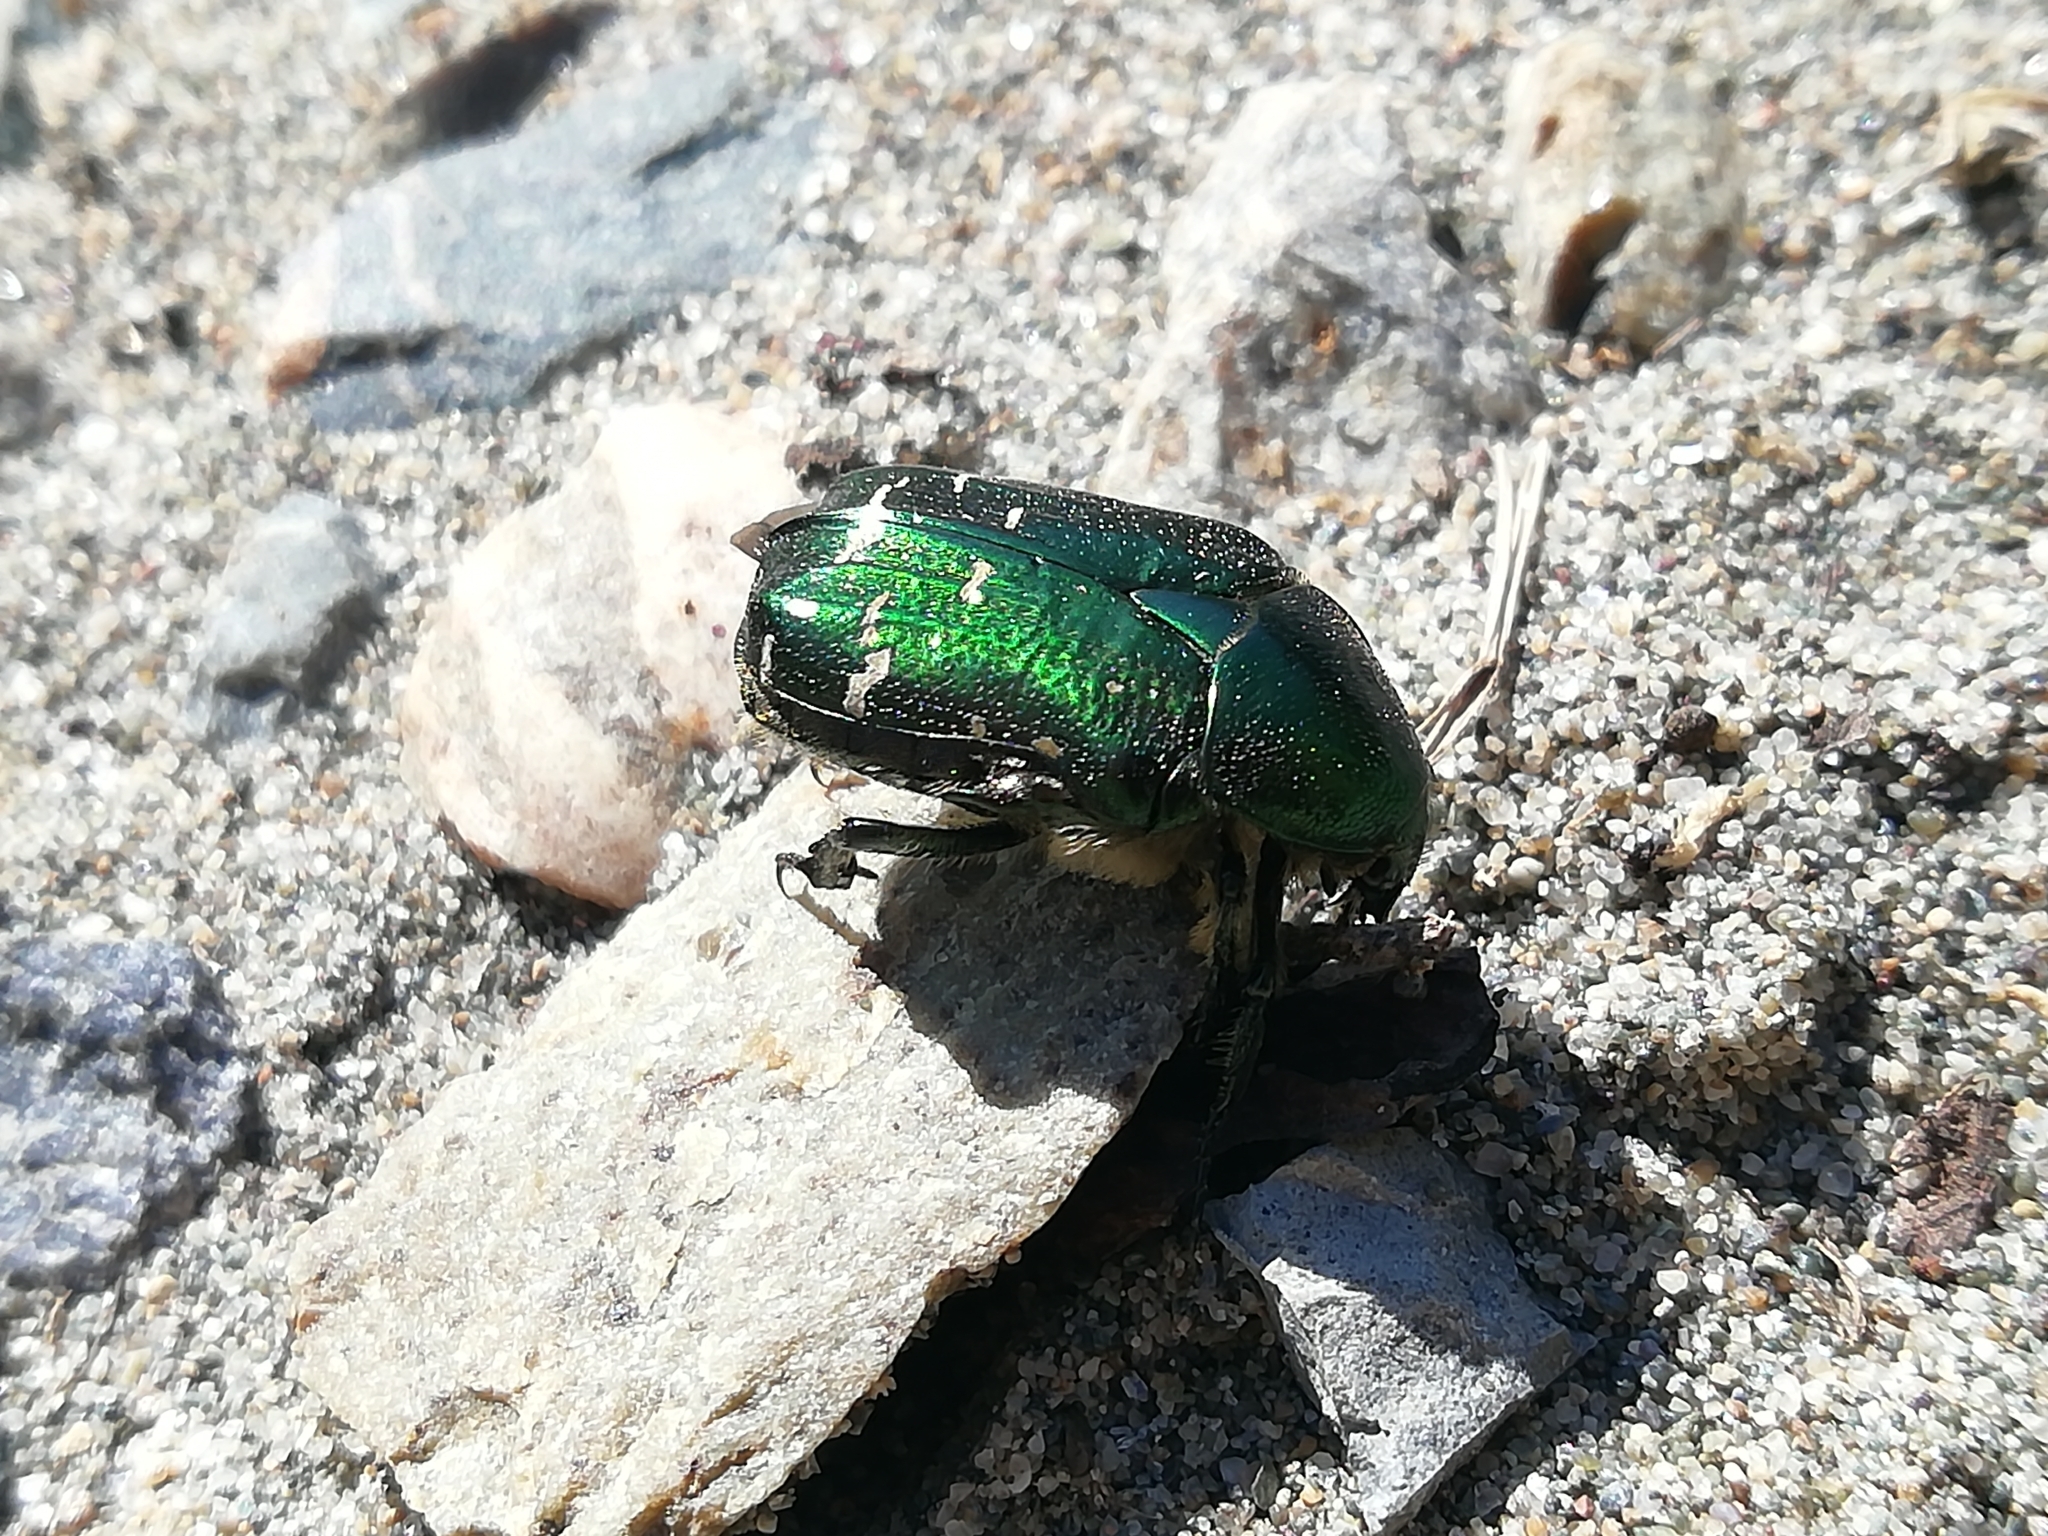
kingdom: Animalia
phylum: Arthropoda
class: Insecta
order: Coleoptera
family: Scarabaeidae
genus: Cetonia
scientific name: Cetonia aurata
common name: Rose chafer
